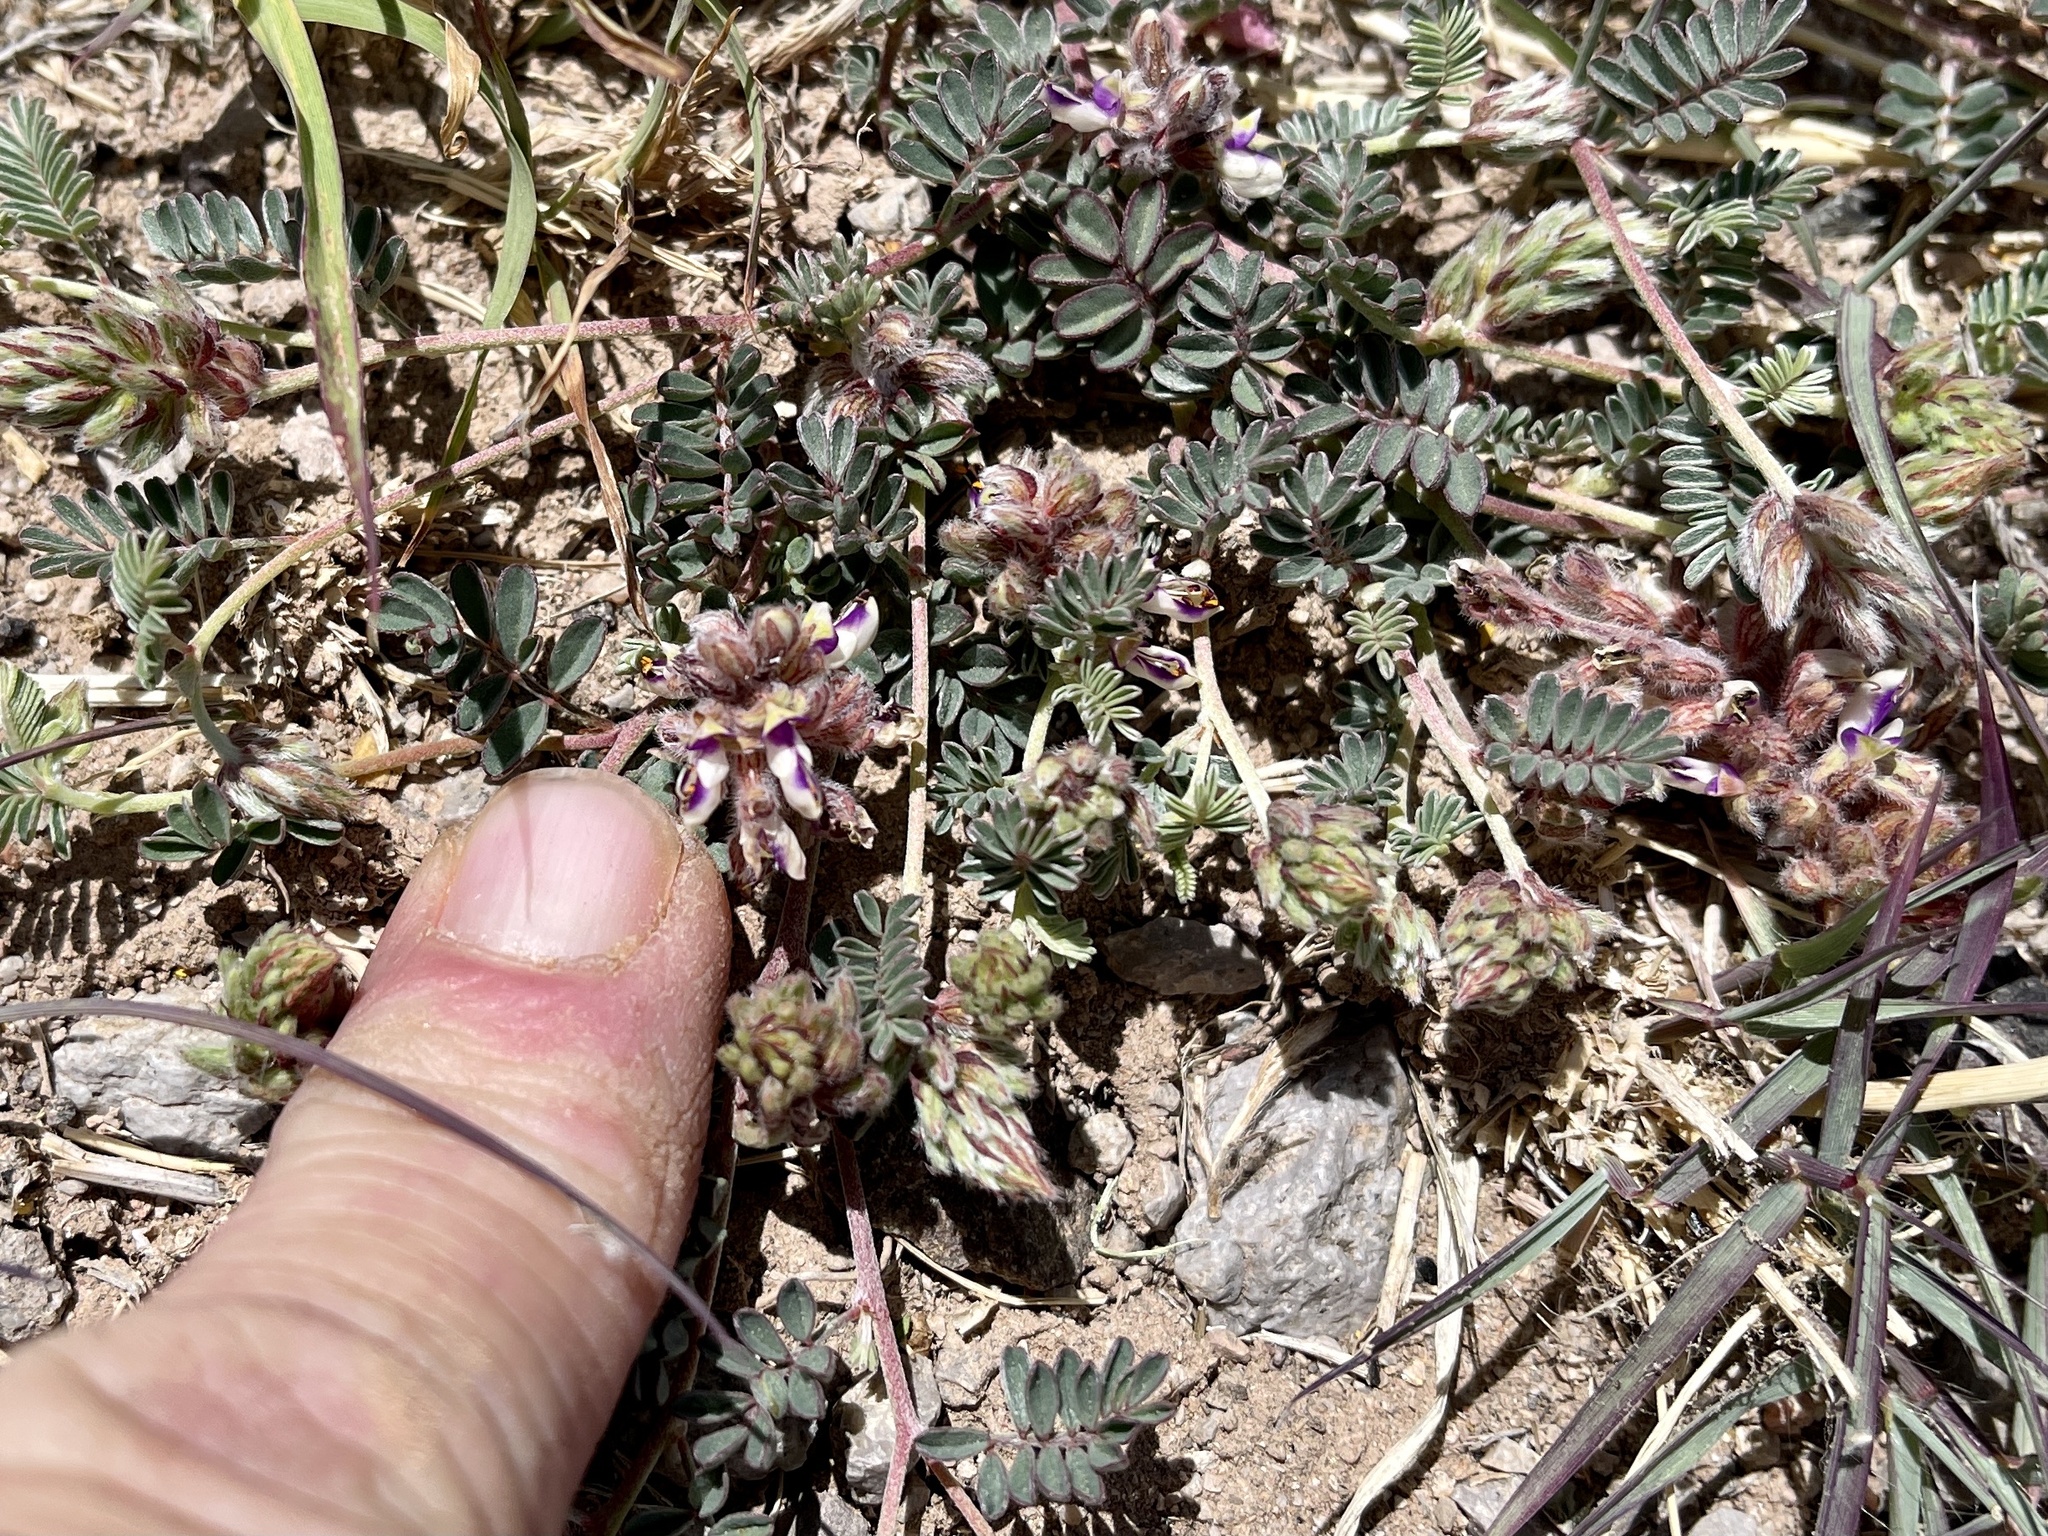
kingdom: Plantae
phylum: Tracheophyta
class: Magnoliopsida
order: Fabales
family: Fabaceae
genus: Marina
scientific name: Marina calycosa
